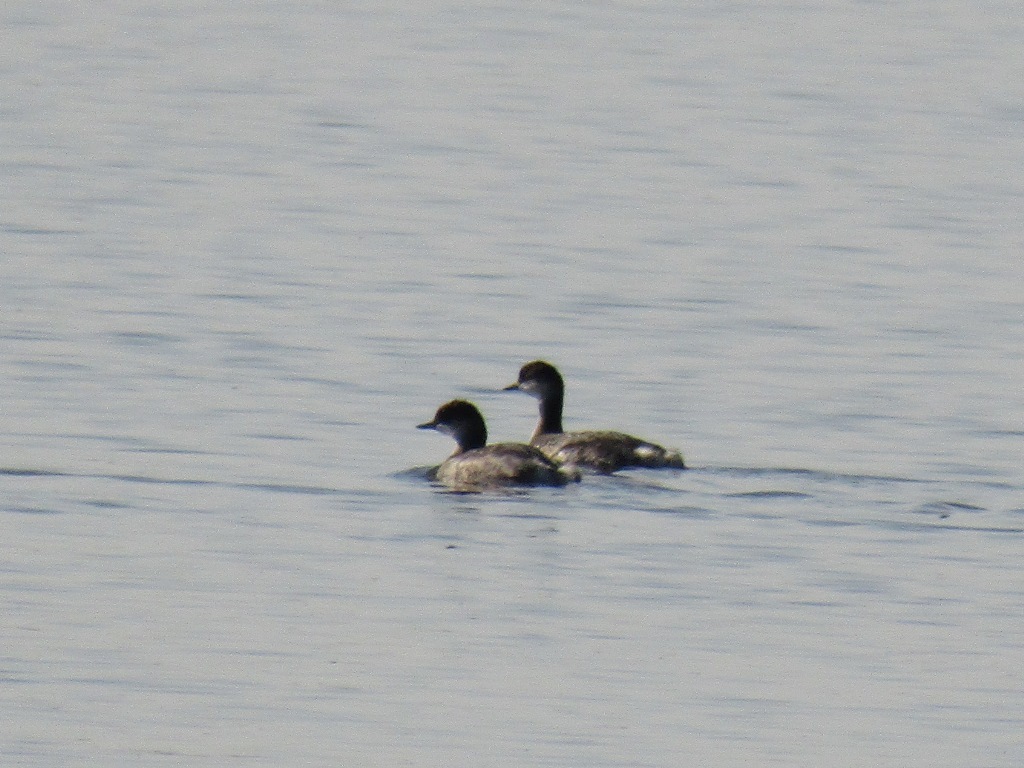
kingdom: Animalia
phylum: Chordata
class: Aves
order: Podicipediformes
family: Podicipedidae
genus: Podiceps
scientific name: Podiceps nigricollis
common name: Black-necked grebe
